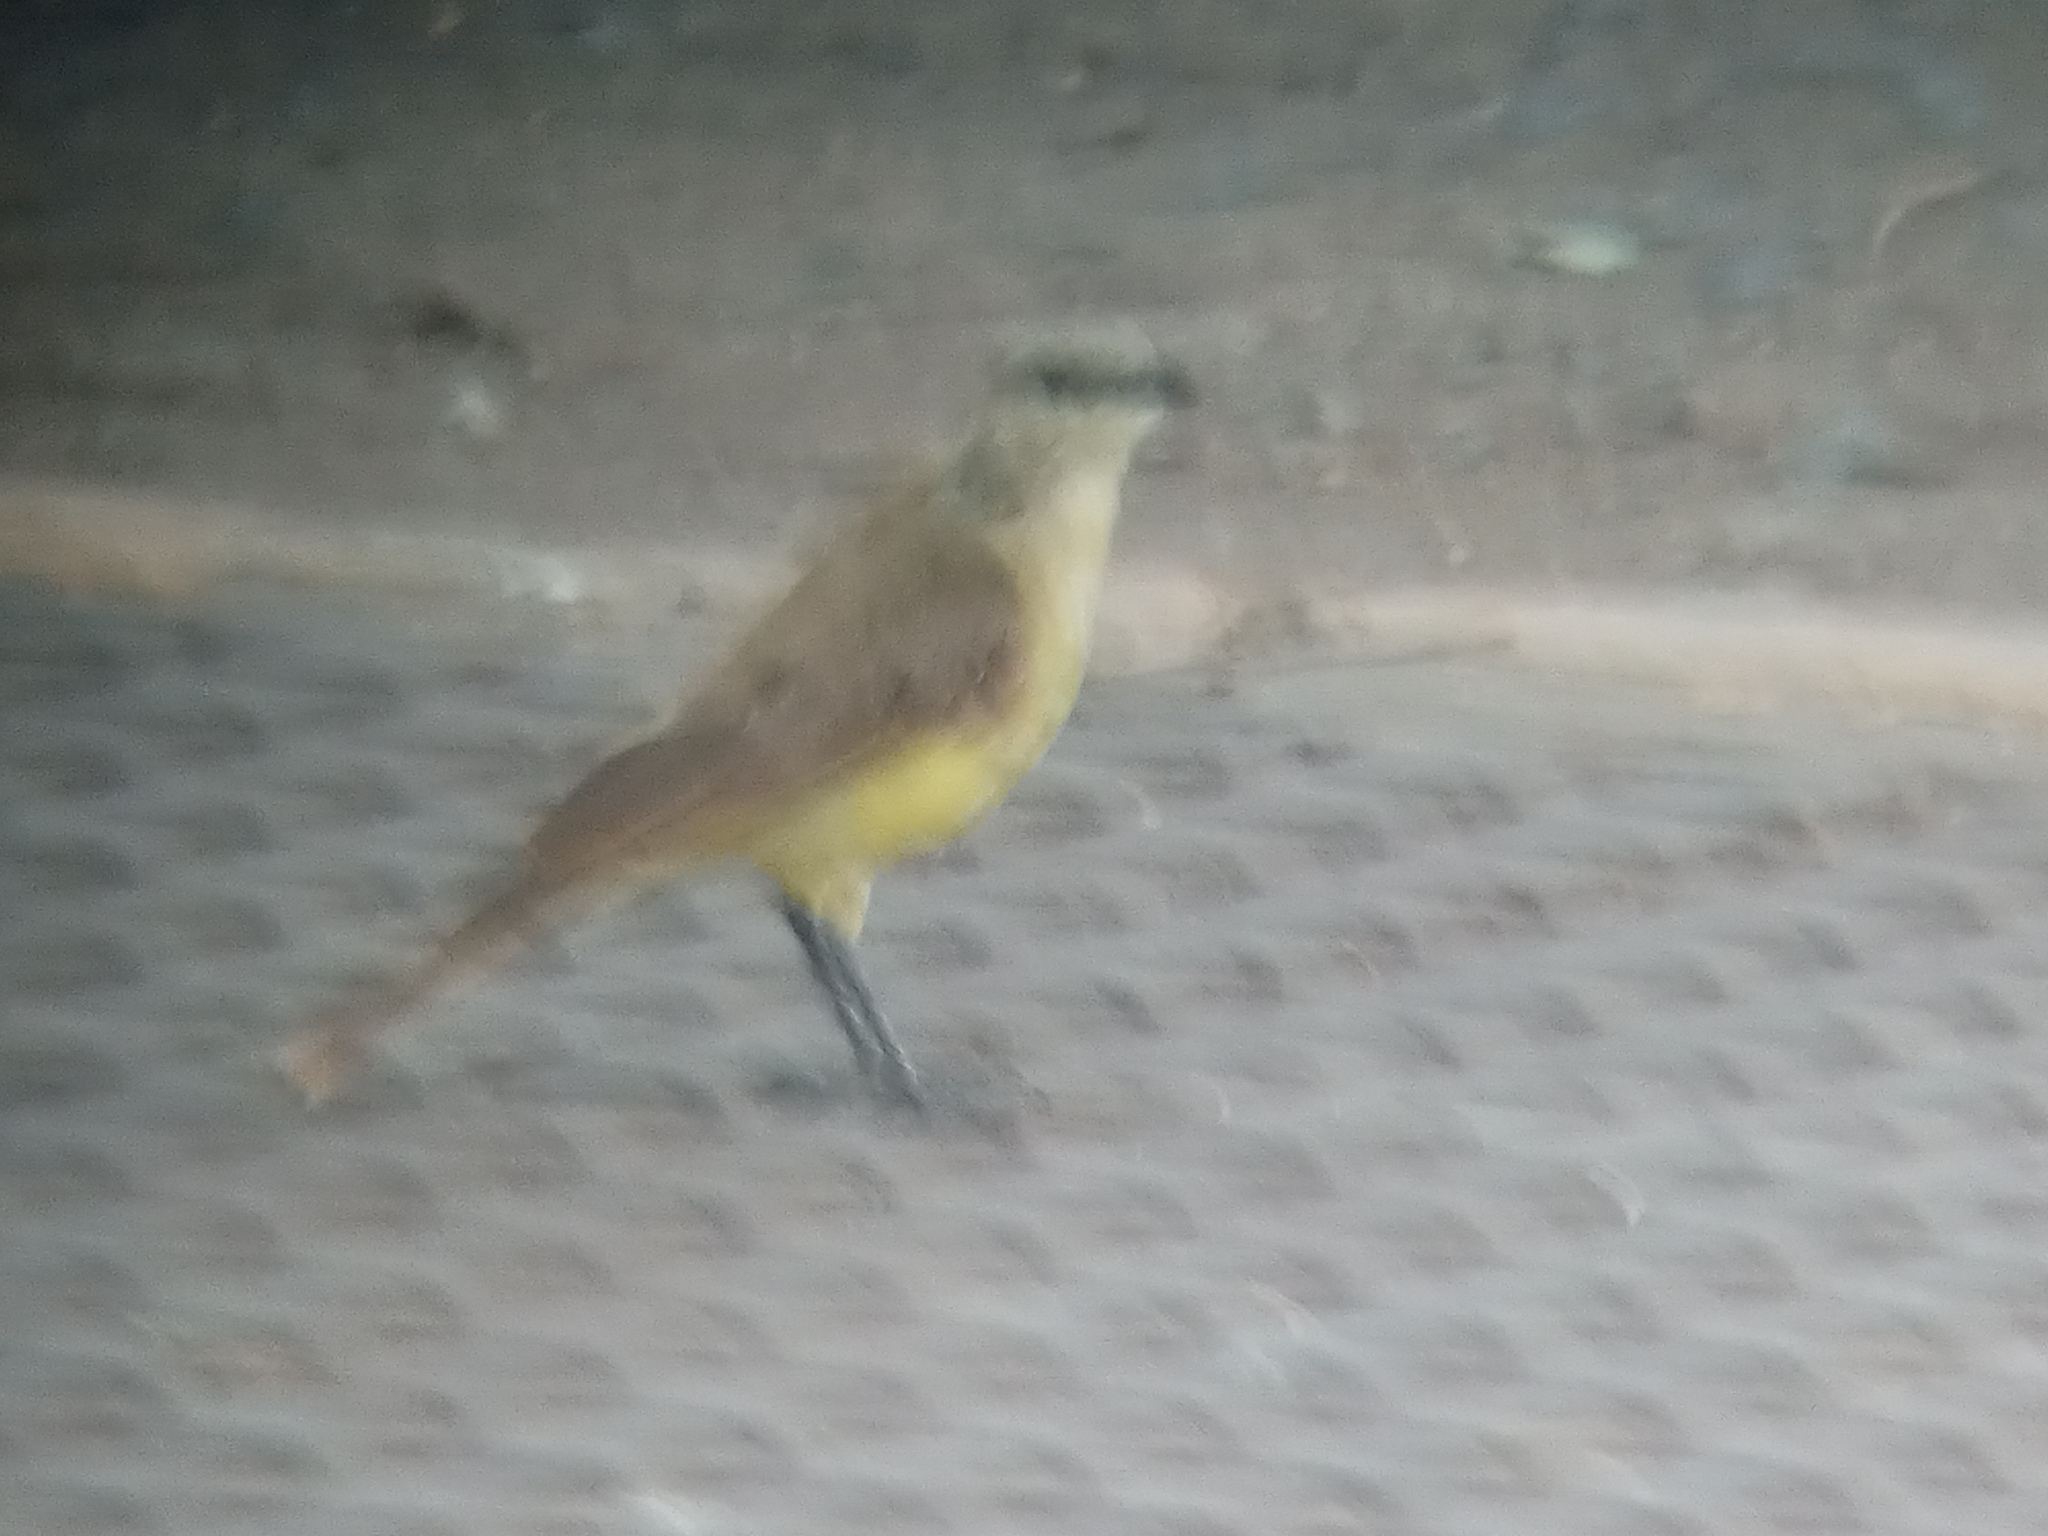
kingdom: Animalia
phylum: Chordata
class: Aves
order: Passeriformes
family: Tyrannidae
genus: Machetornis
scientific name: Machetornis rixosa
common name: Cattle tyrant
